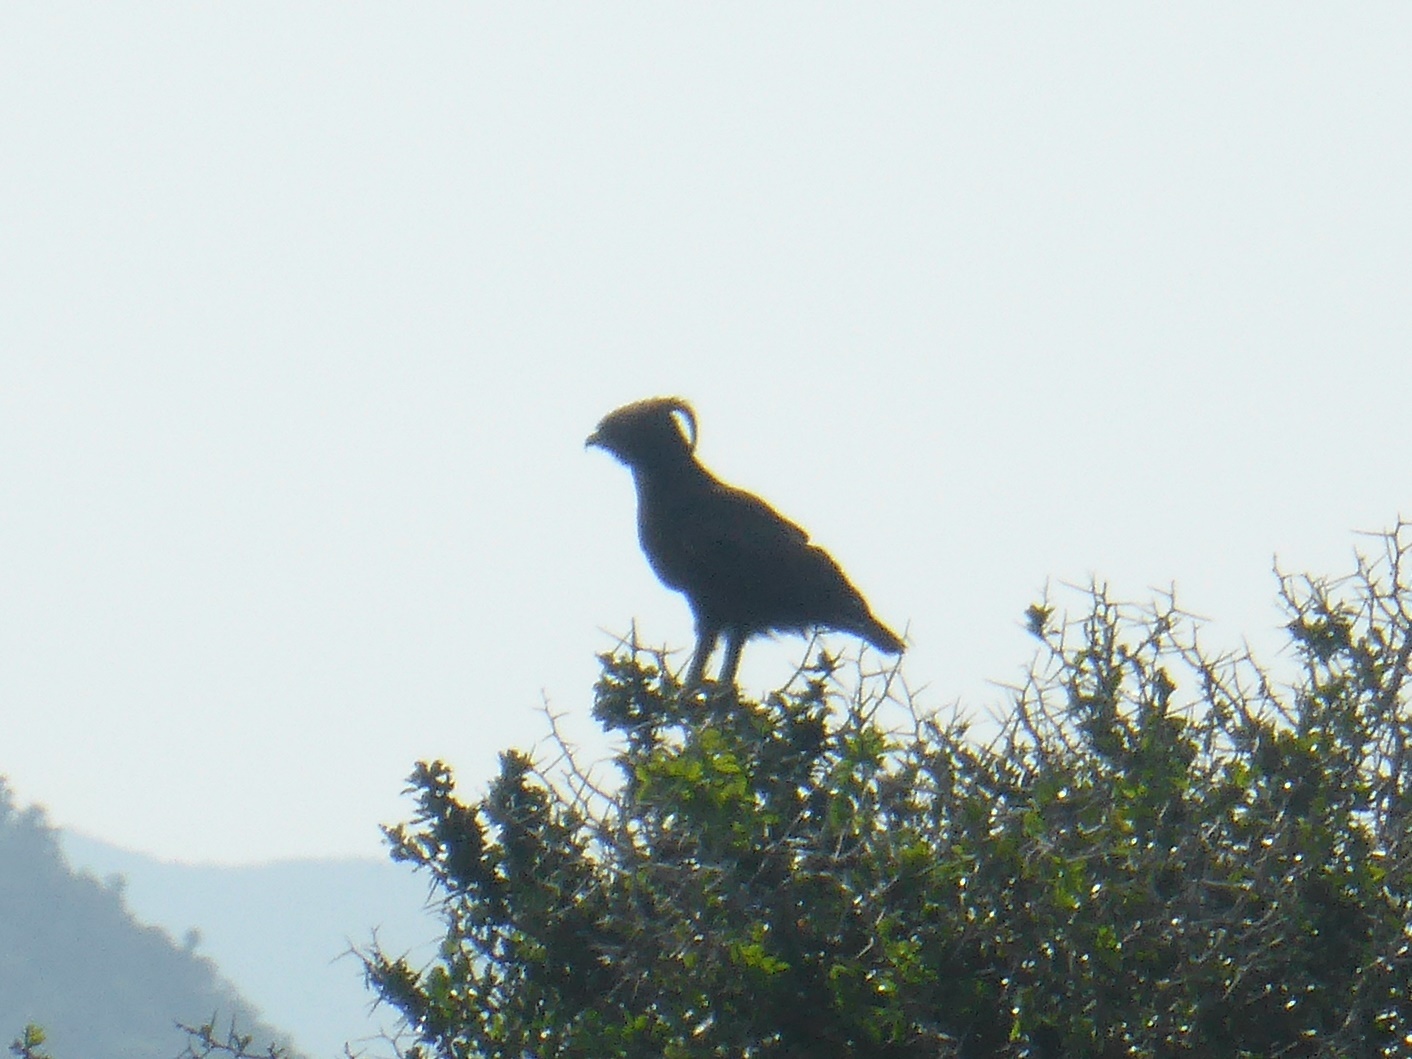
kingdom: Animalia
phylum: Chordata
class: Aves
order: Accipitriformes
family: Accipitridae
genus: Lophaetus
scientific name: Lophaetus occipitalis
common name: Long-crested eagle
